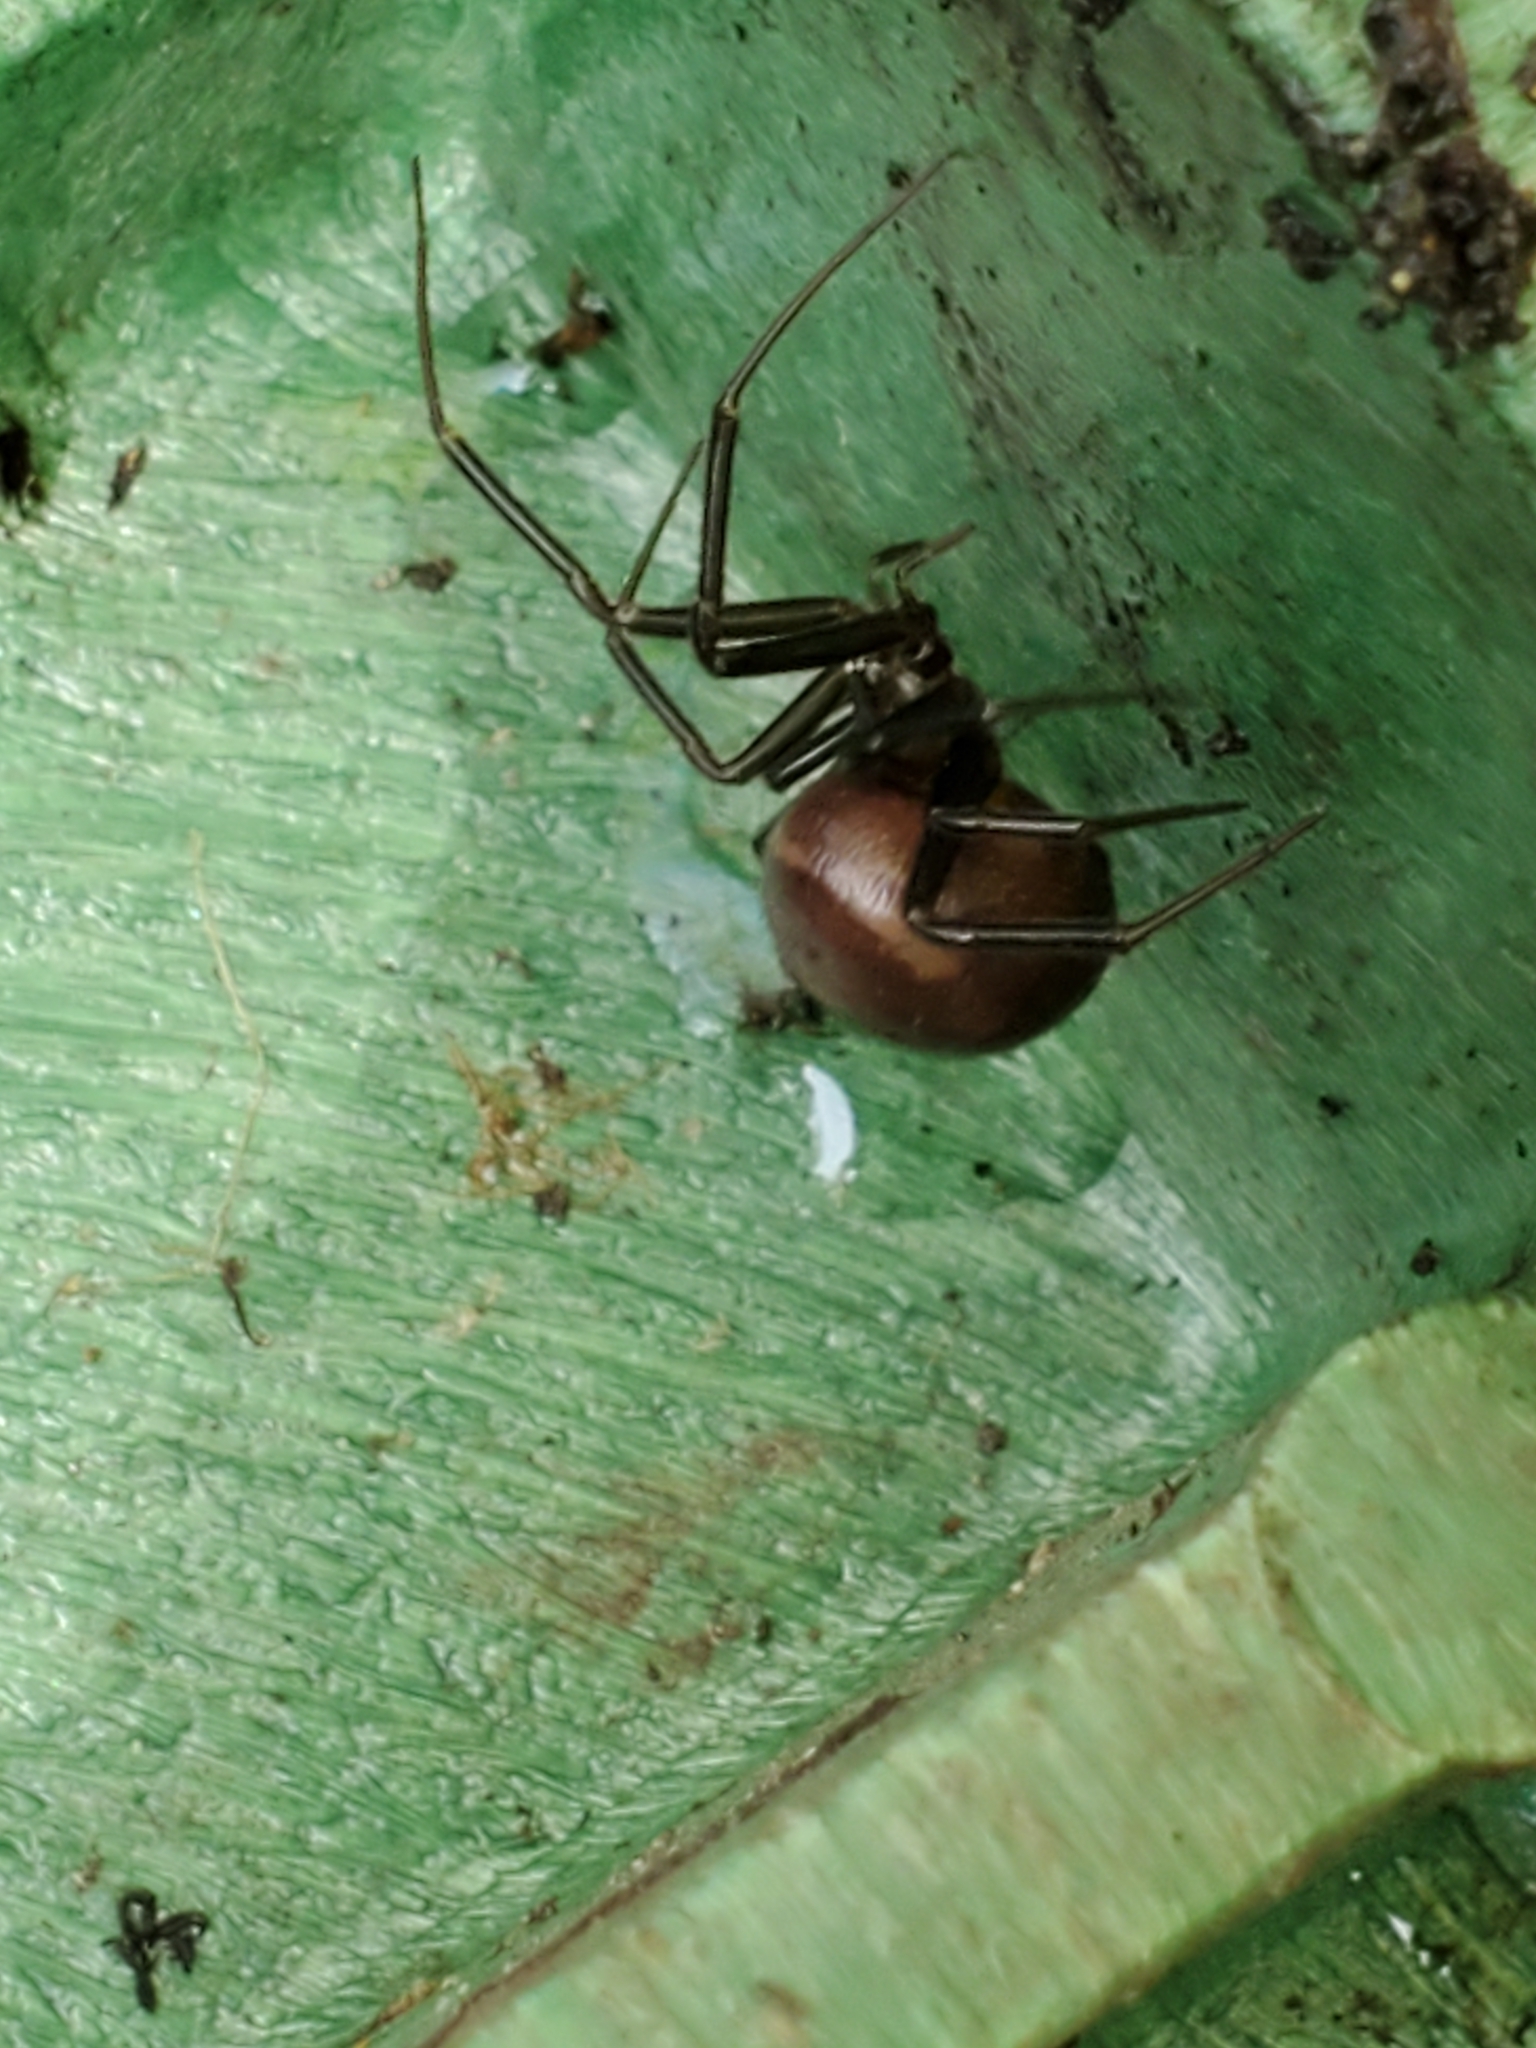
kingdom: Animalia
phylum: Arthropoda
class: Arachnida
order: Araneae
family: Theridiidae
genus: Steatoda
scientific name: Steatoda grossa
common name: False black widow
